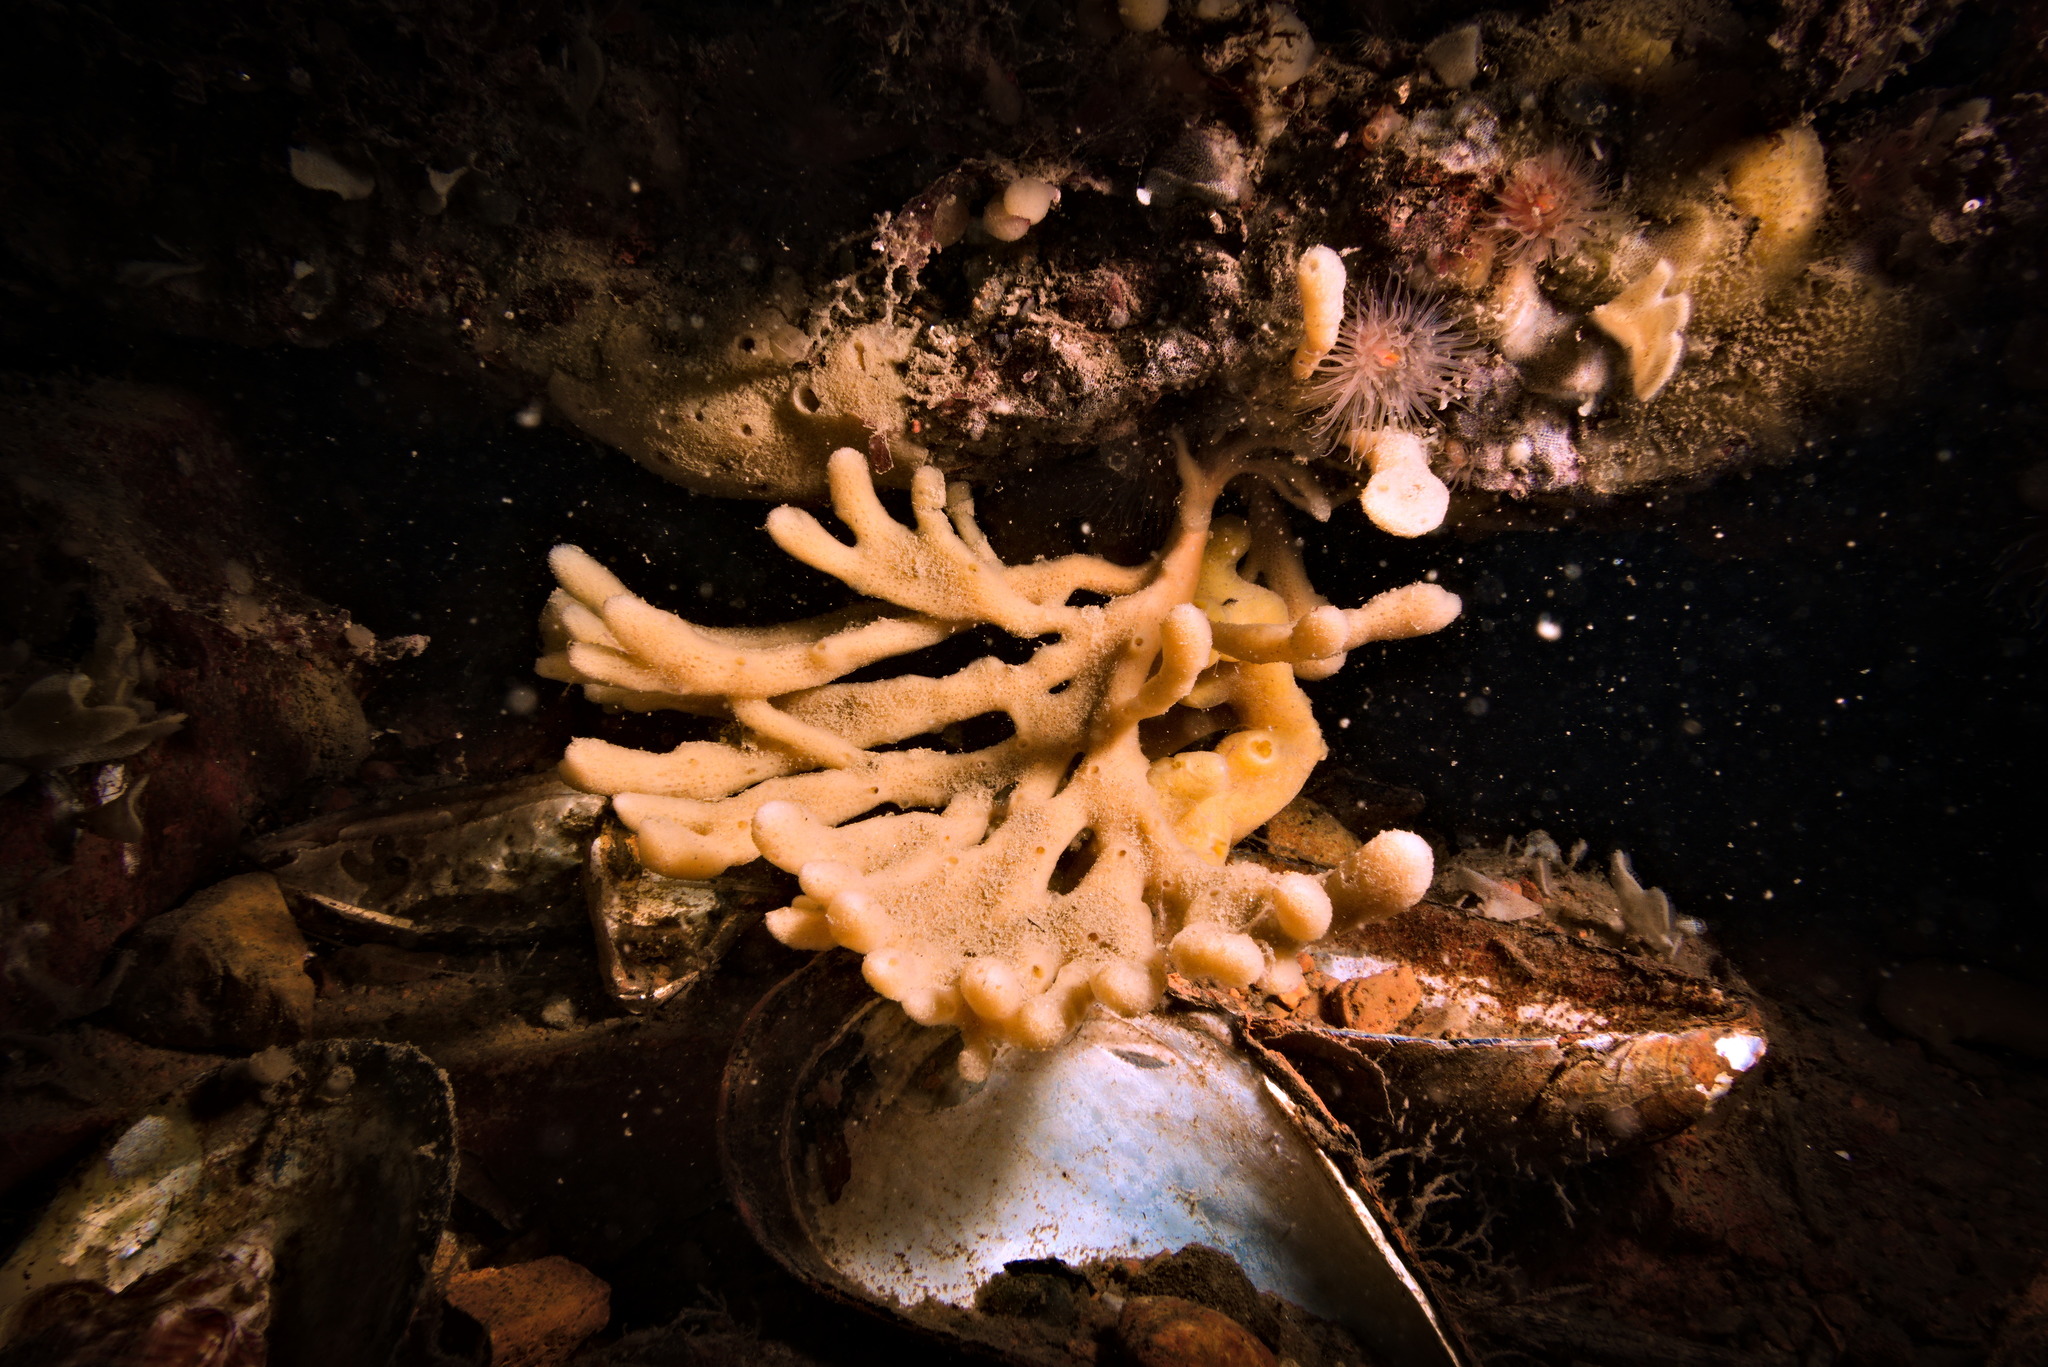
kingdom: Animalia
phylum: Porifera
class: Demospongiae
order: Haplosclerida
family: Chalinidae
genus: Haliclona
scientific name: Haliclona oculata
